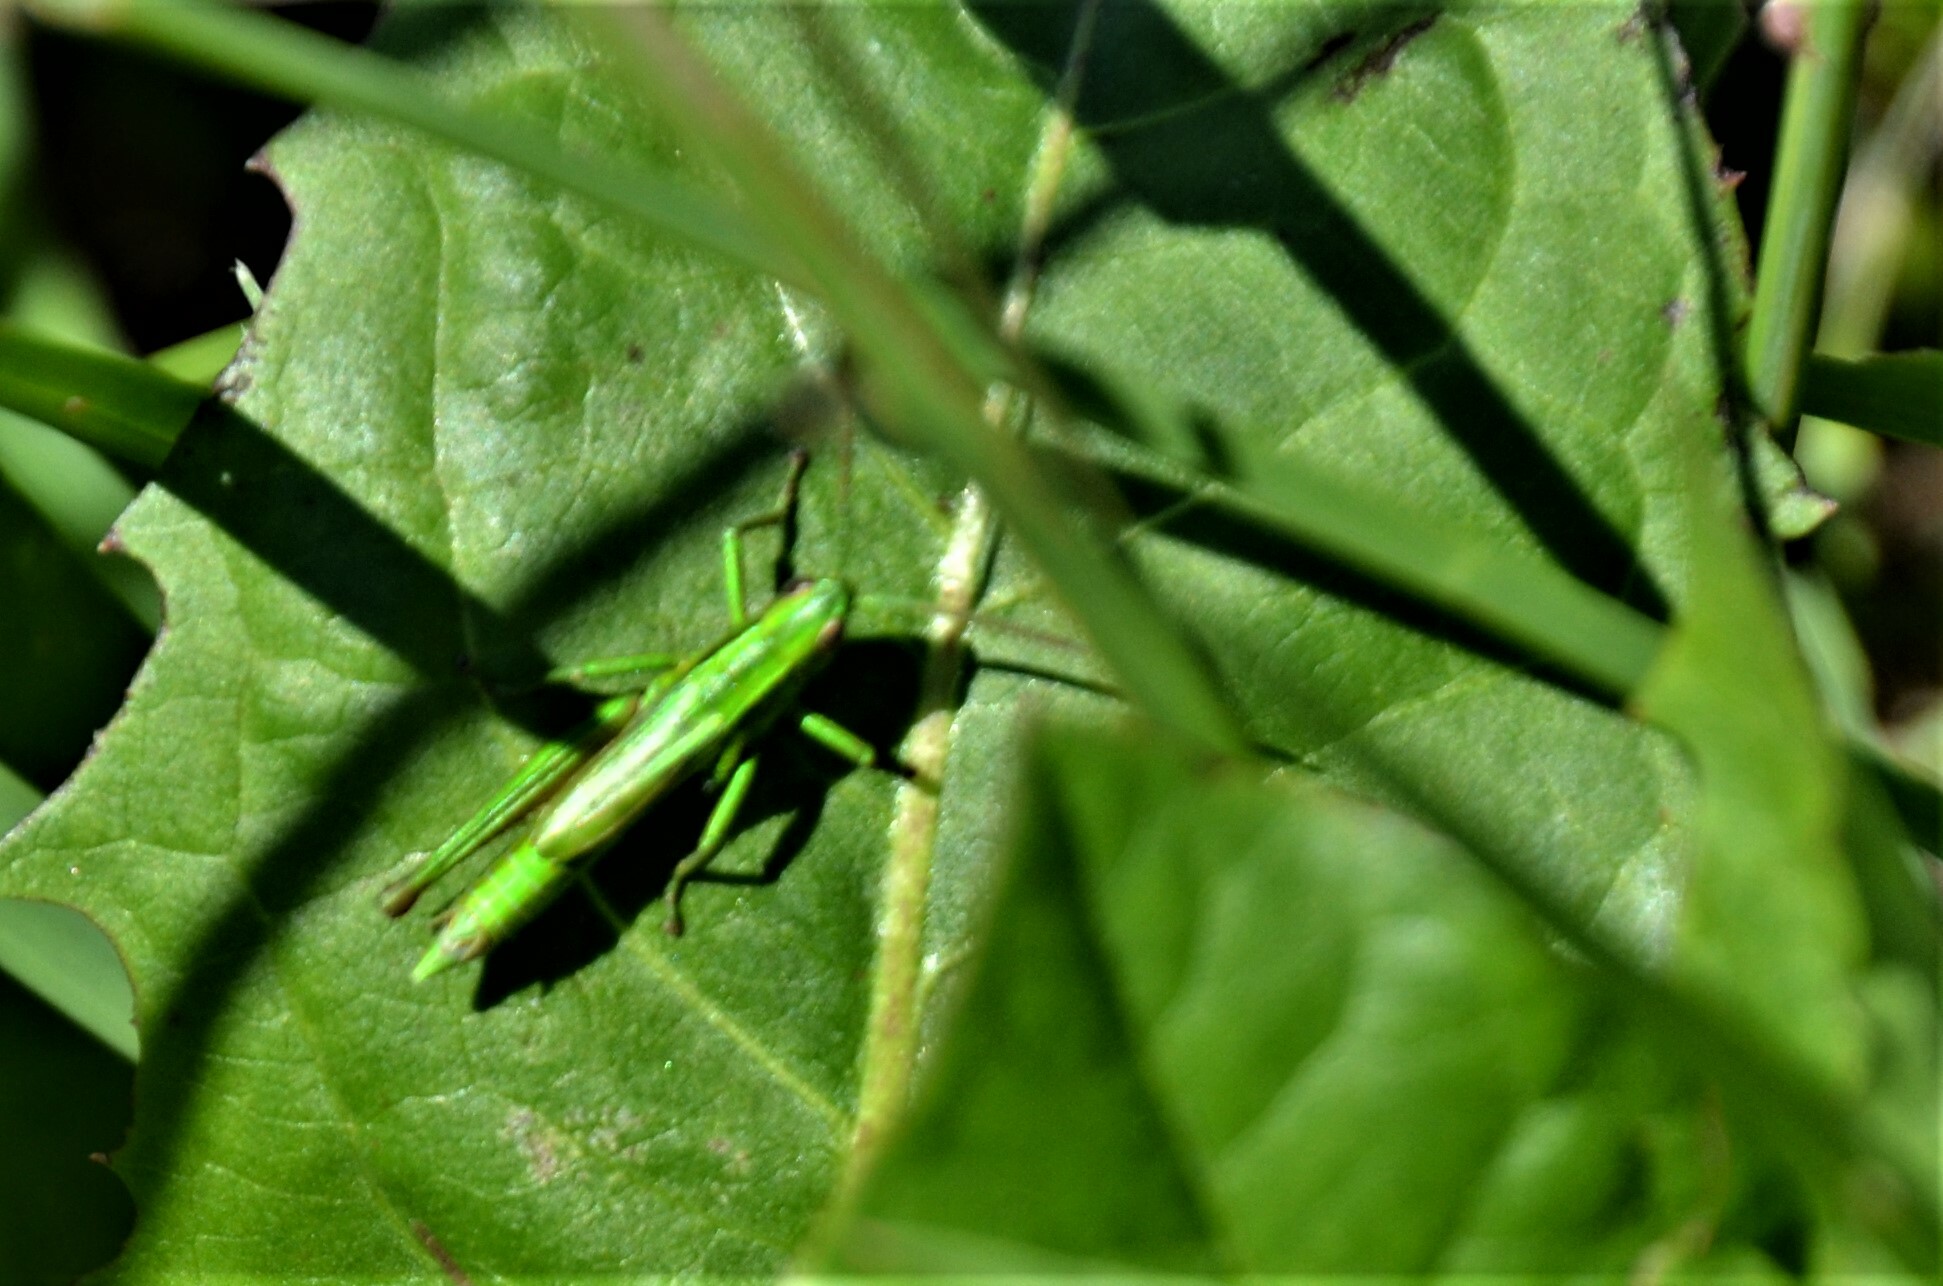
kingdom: Animalia
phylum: Arthropoda
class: Insecta
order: Orthoptera
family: Acrididae
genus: Euthystira
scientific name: Euthystira brachyptera
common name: Small gold grasshopper
